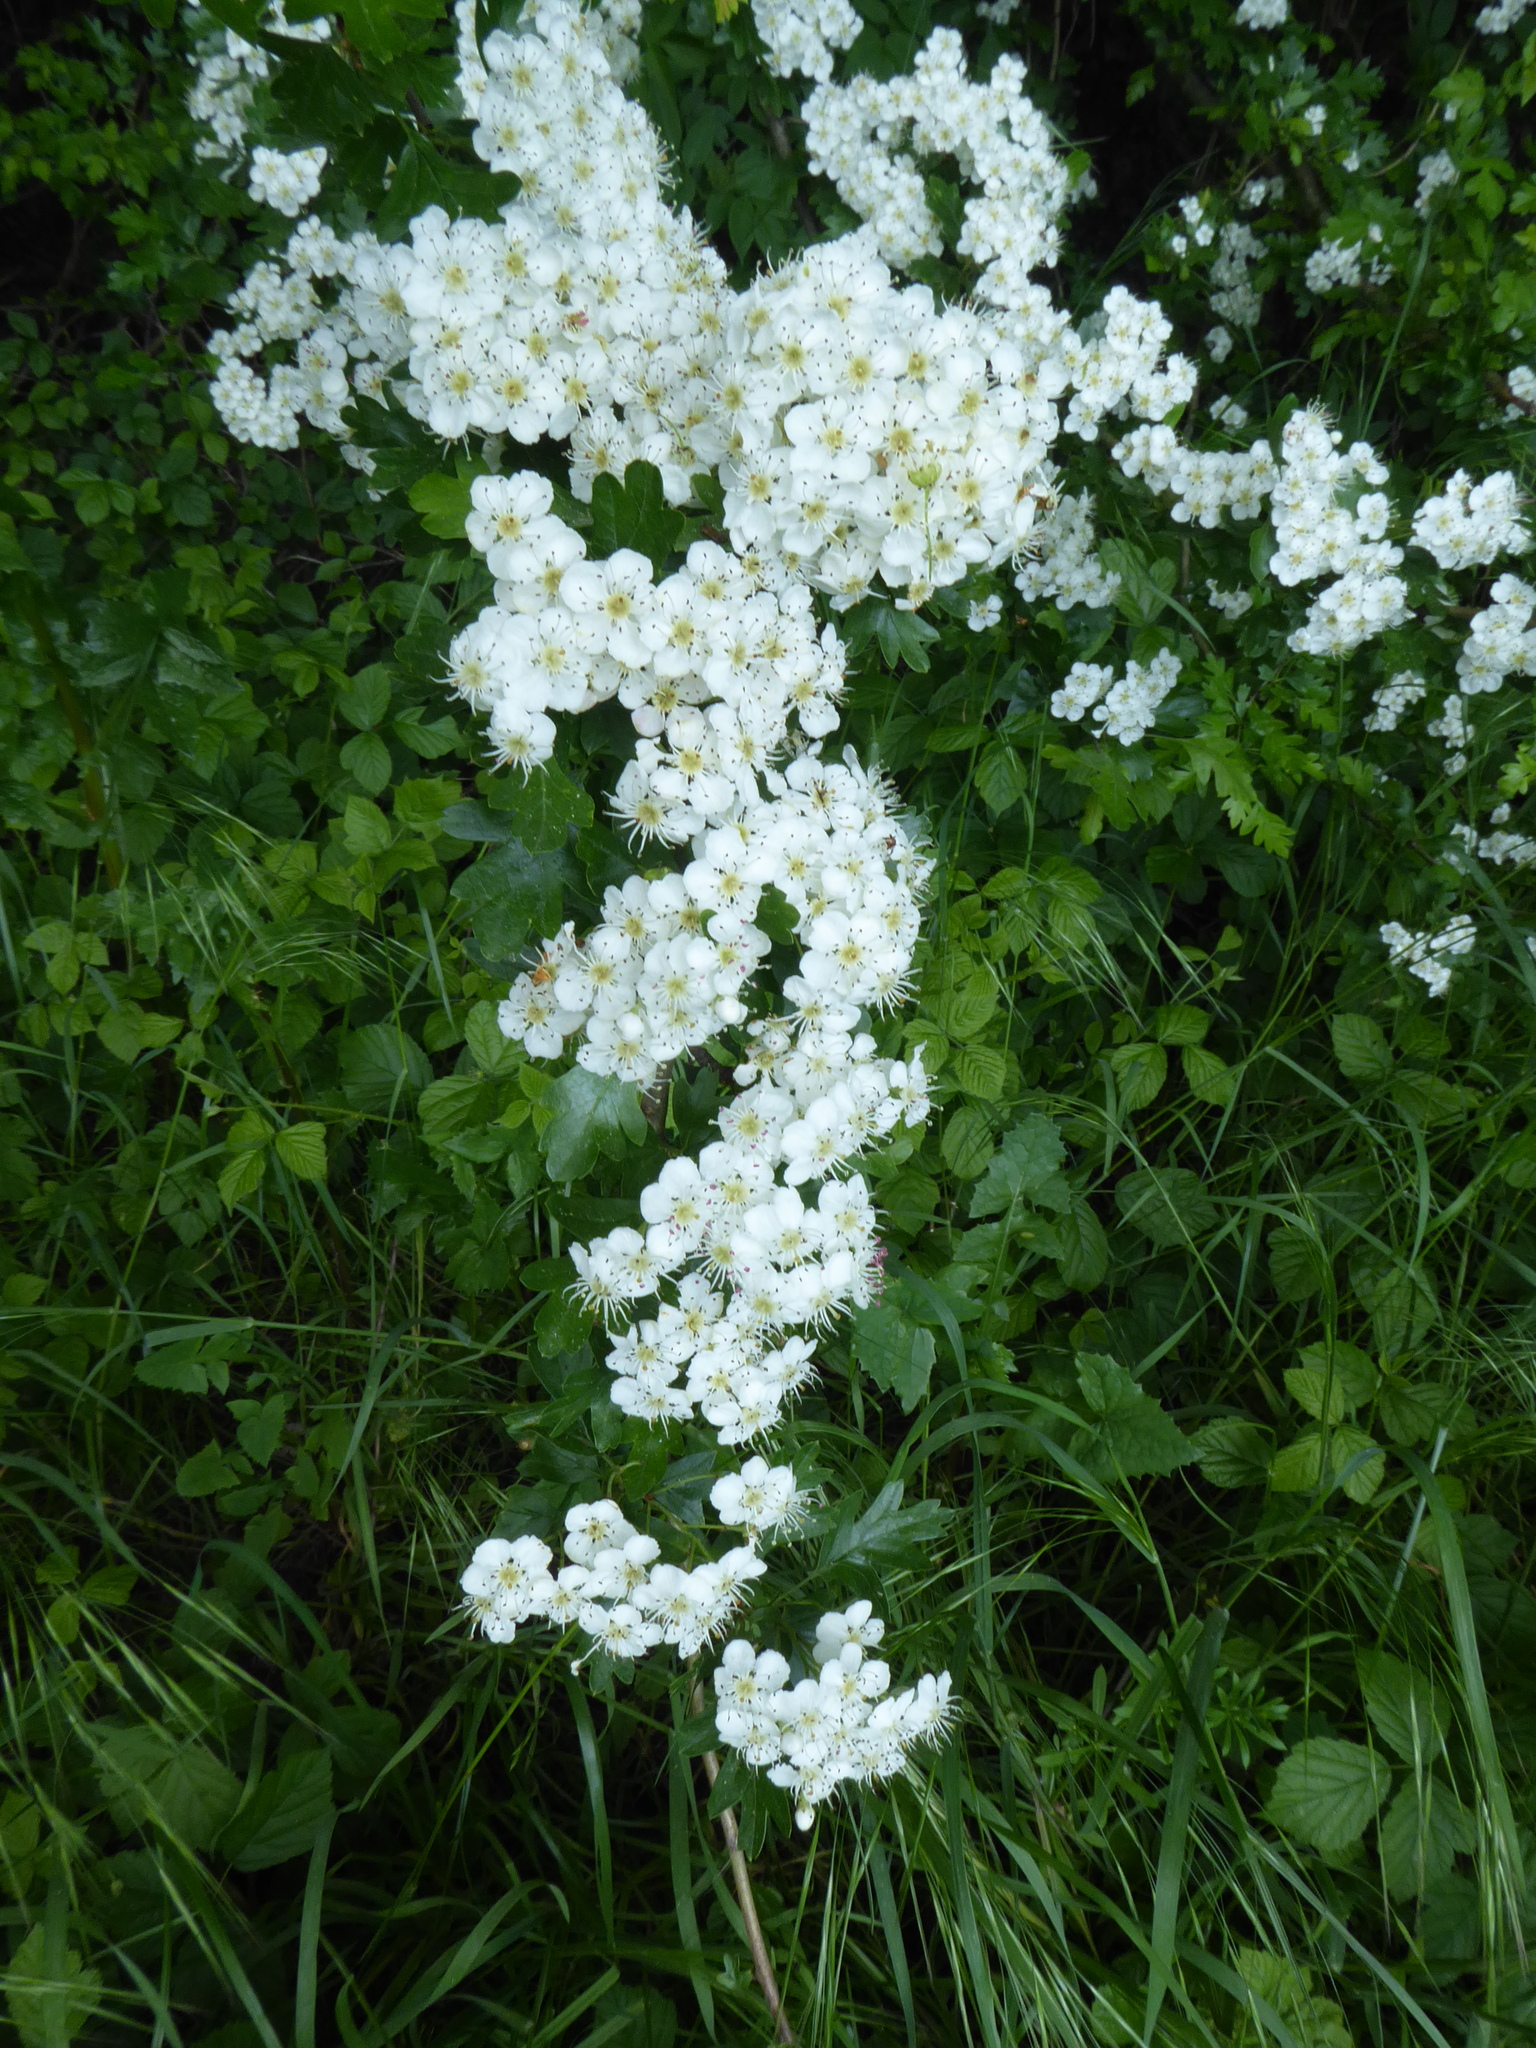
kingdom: Plantae
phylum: Tracheophyta
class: Magnoliopsida
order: Rosales
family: Rosaceae
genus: Crataegus
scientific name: Crataegus monogyna
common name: Hawthorn
